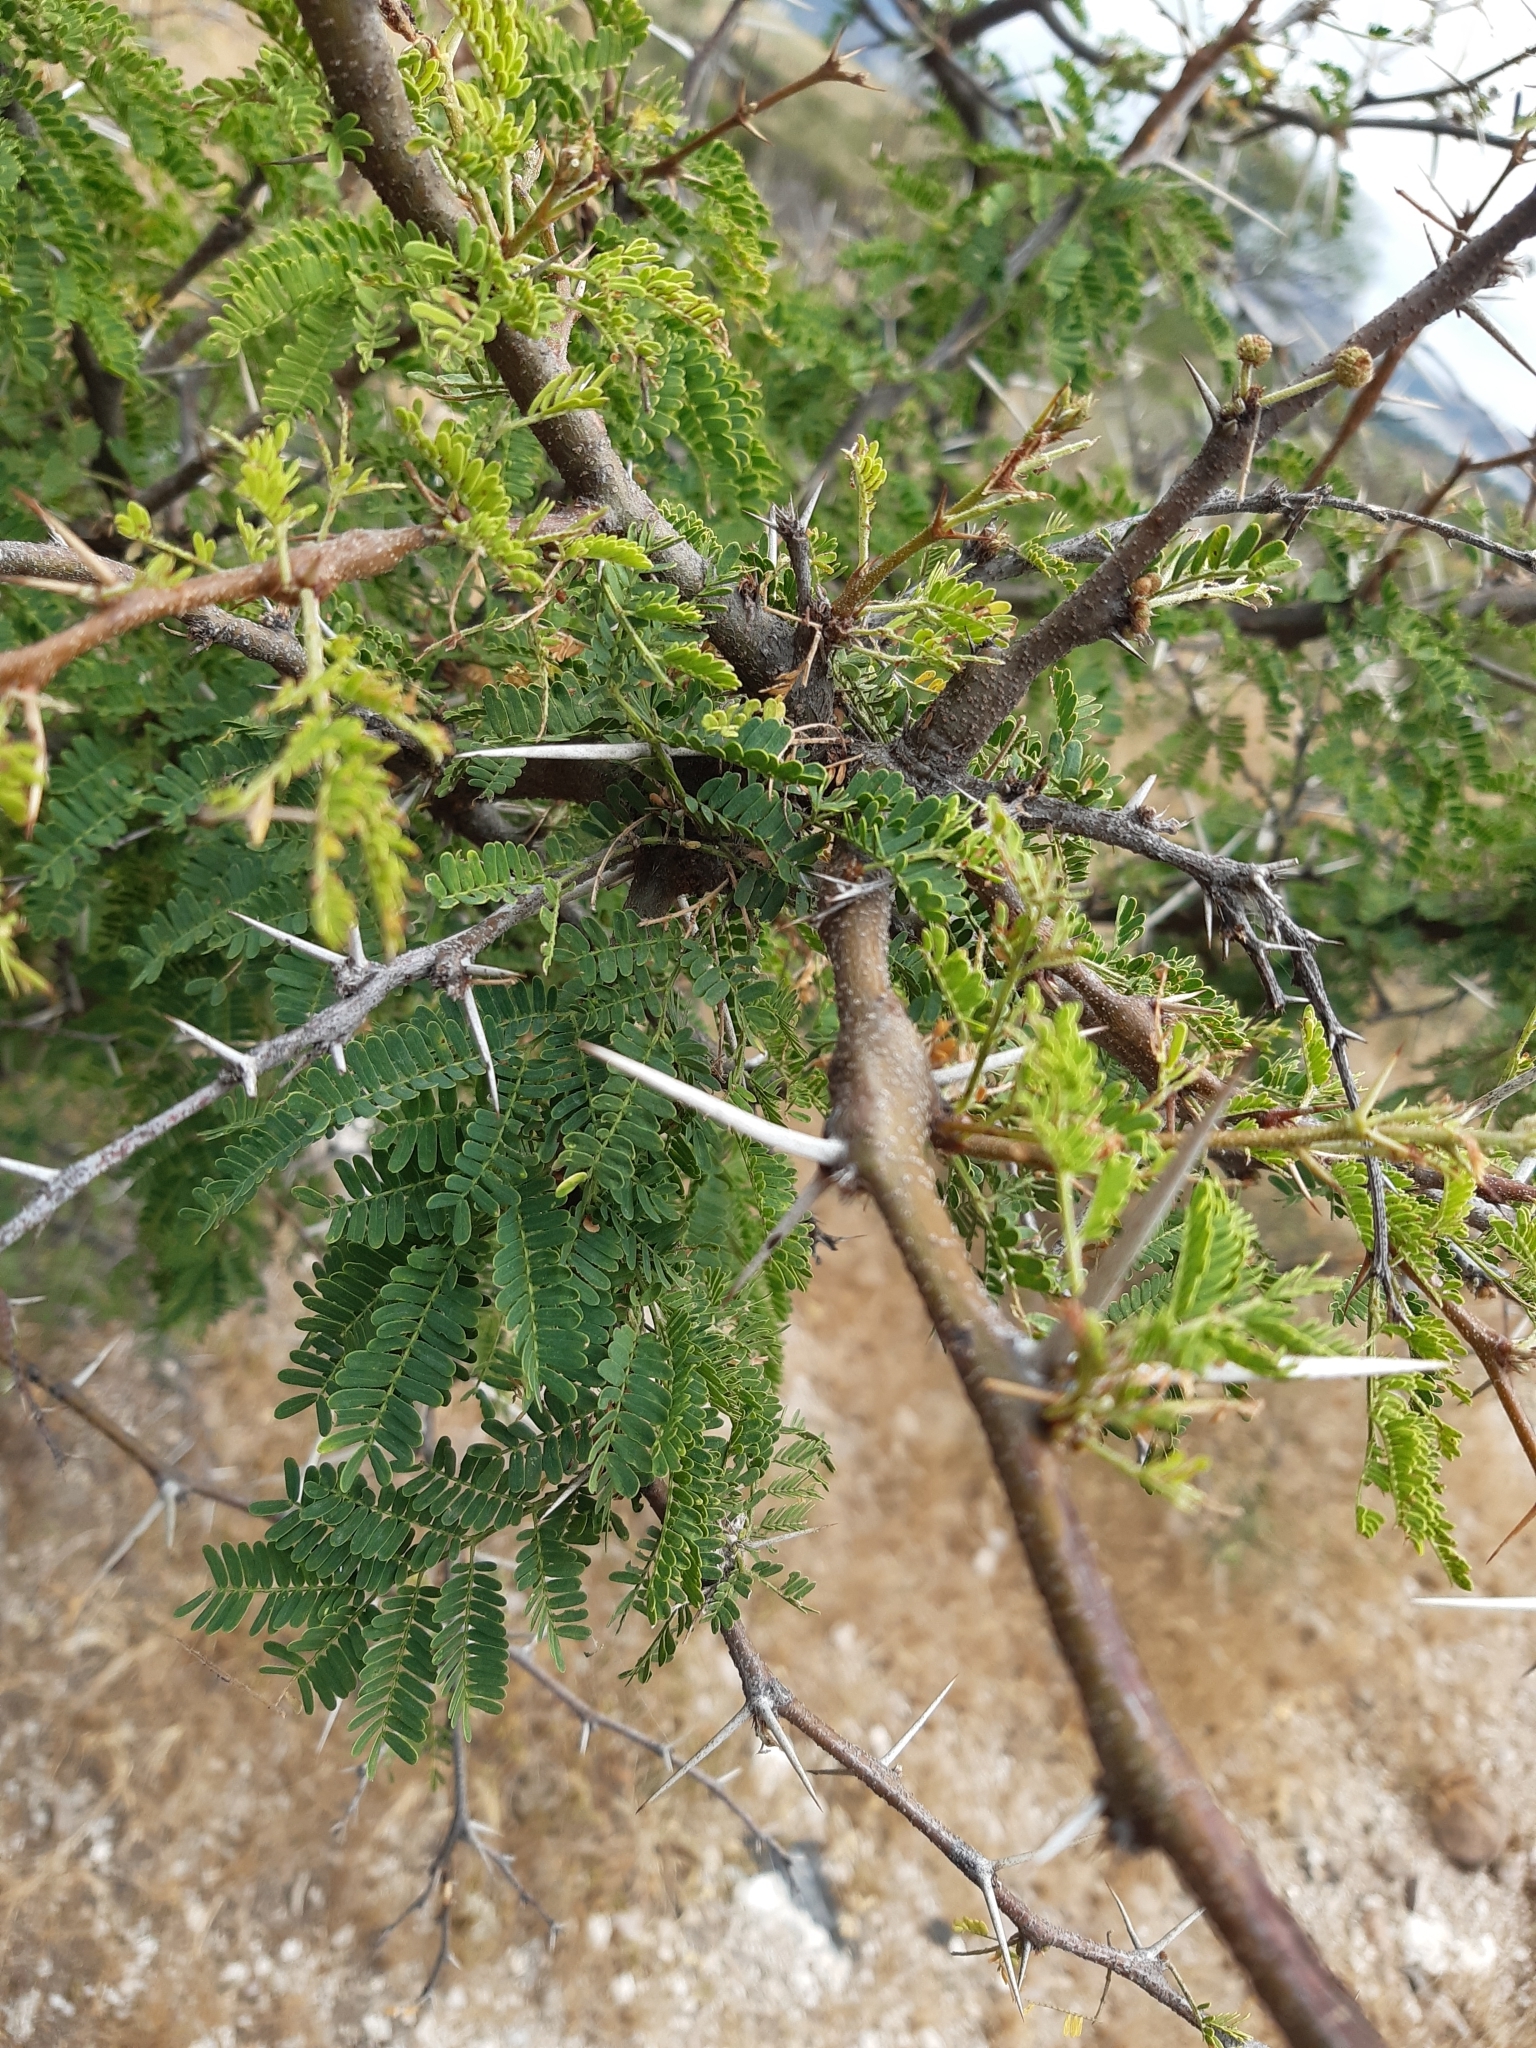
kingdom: Plantae
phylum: Tracheophyta
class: Magnoliopsida
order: Fabales
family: Fabaceae
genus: Vachellia
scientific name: Vachellia farnesiana
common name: Sweet acacia
